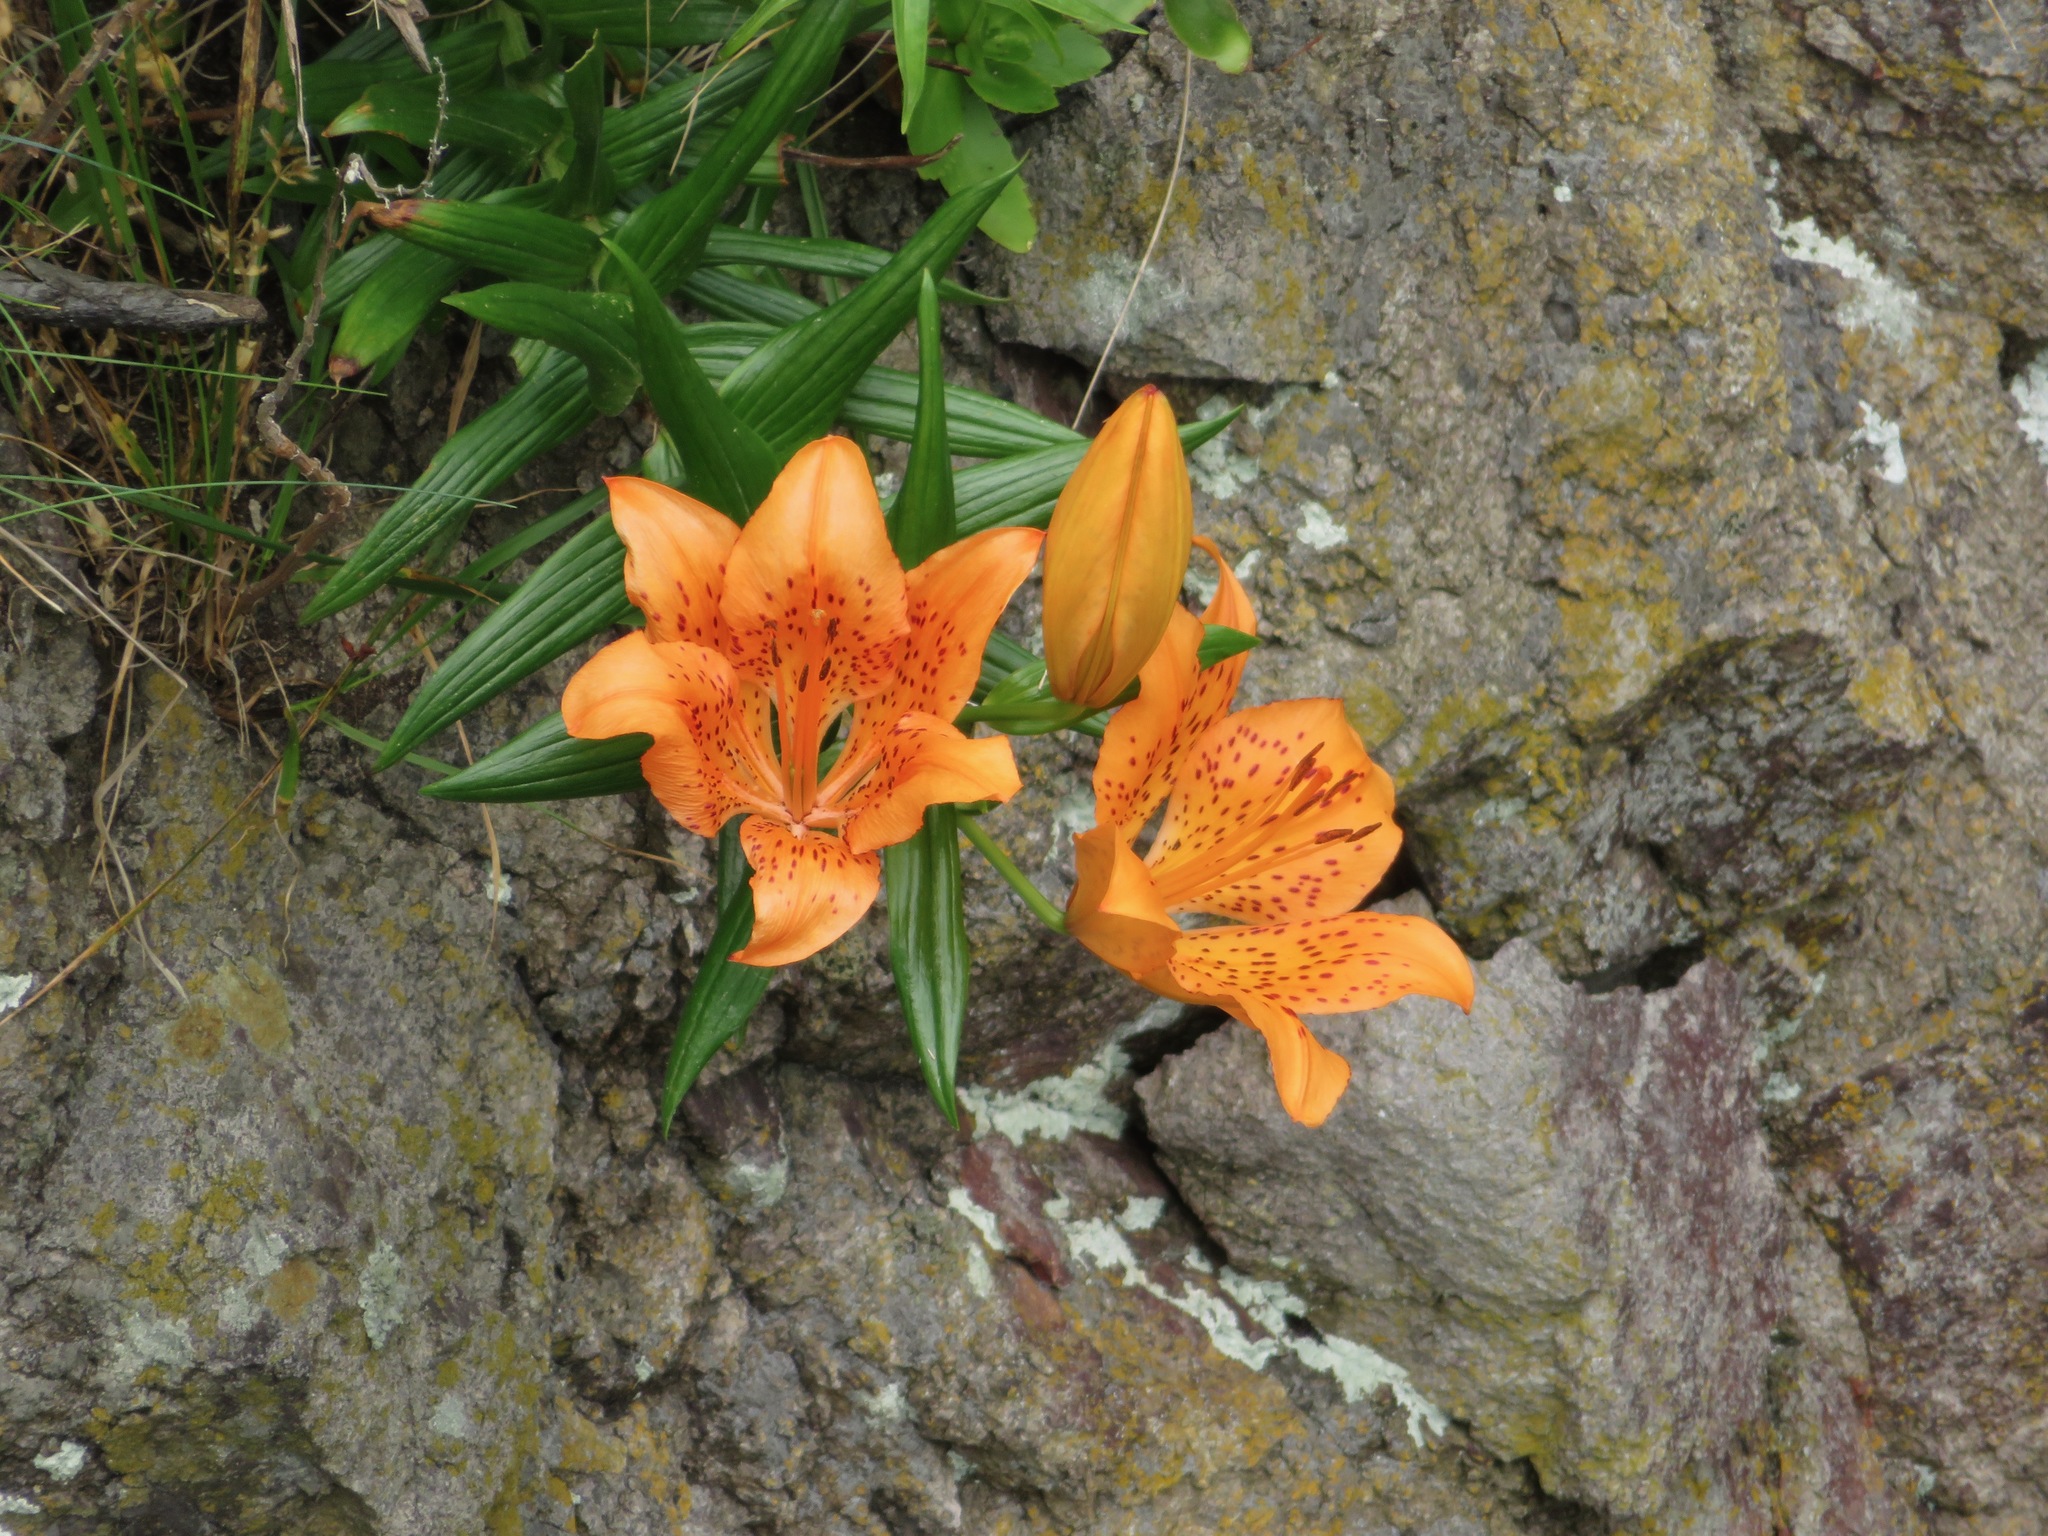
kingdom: Plantae
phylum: Tracheophyta
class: Liliopsida
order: Liliales
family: Liliaceae
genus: Lilium
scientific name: Lilium maculatum
